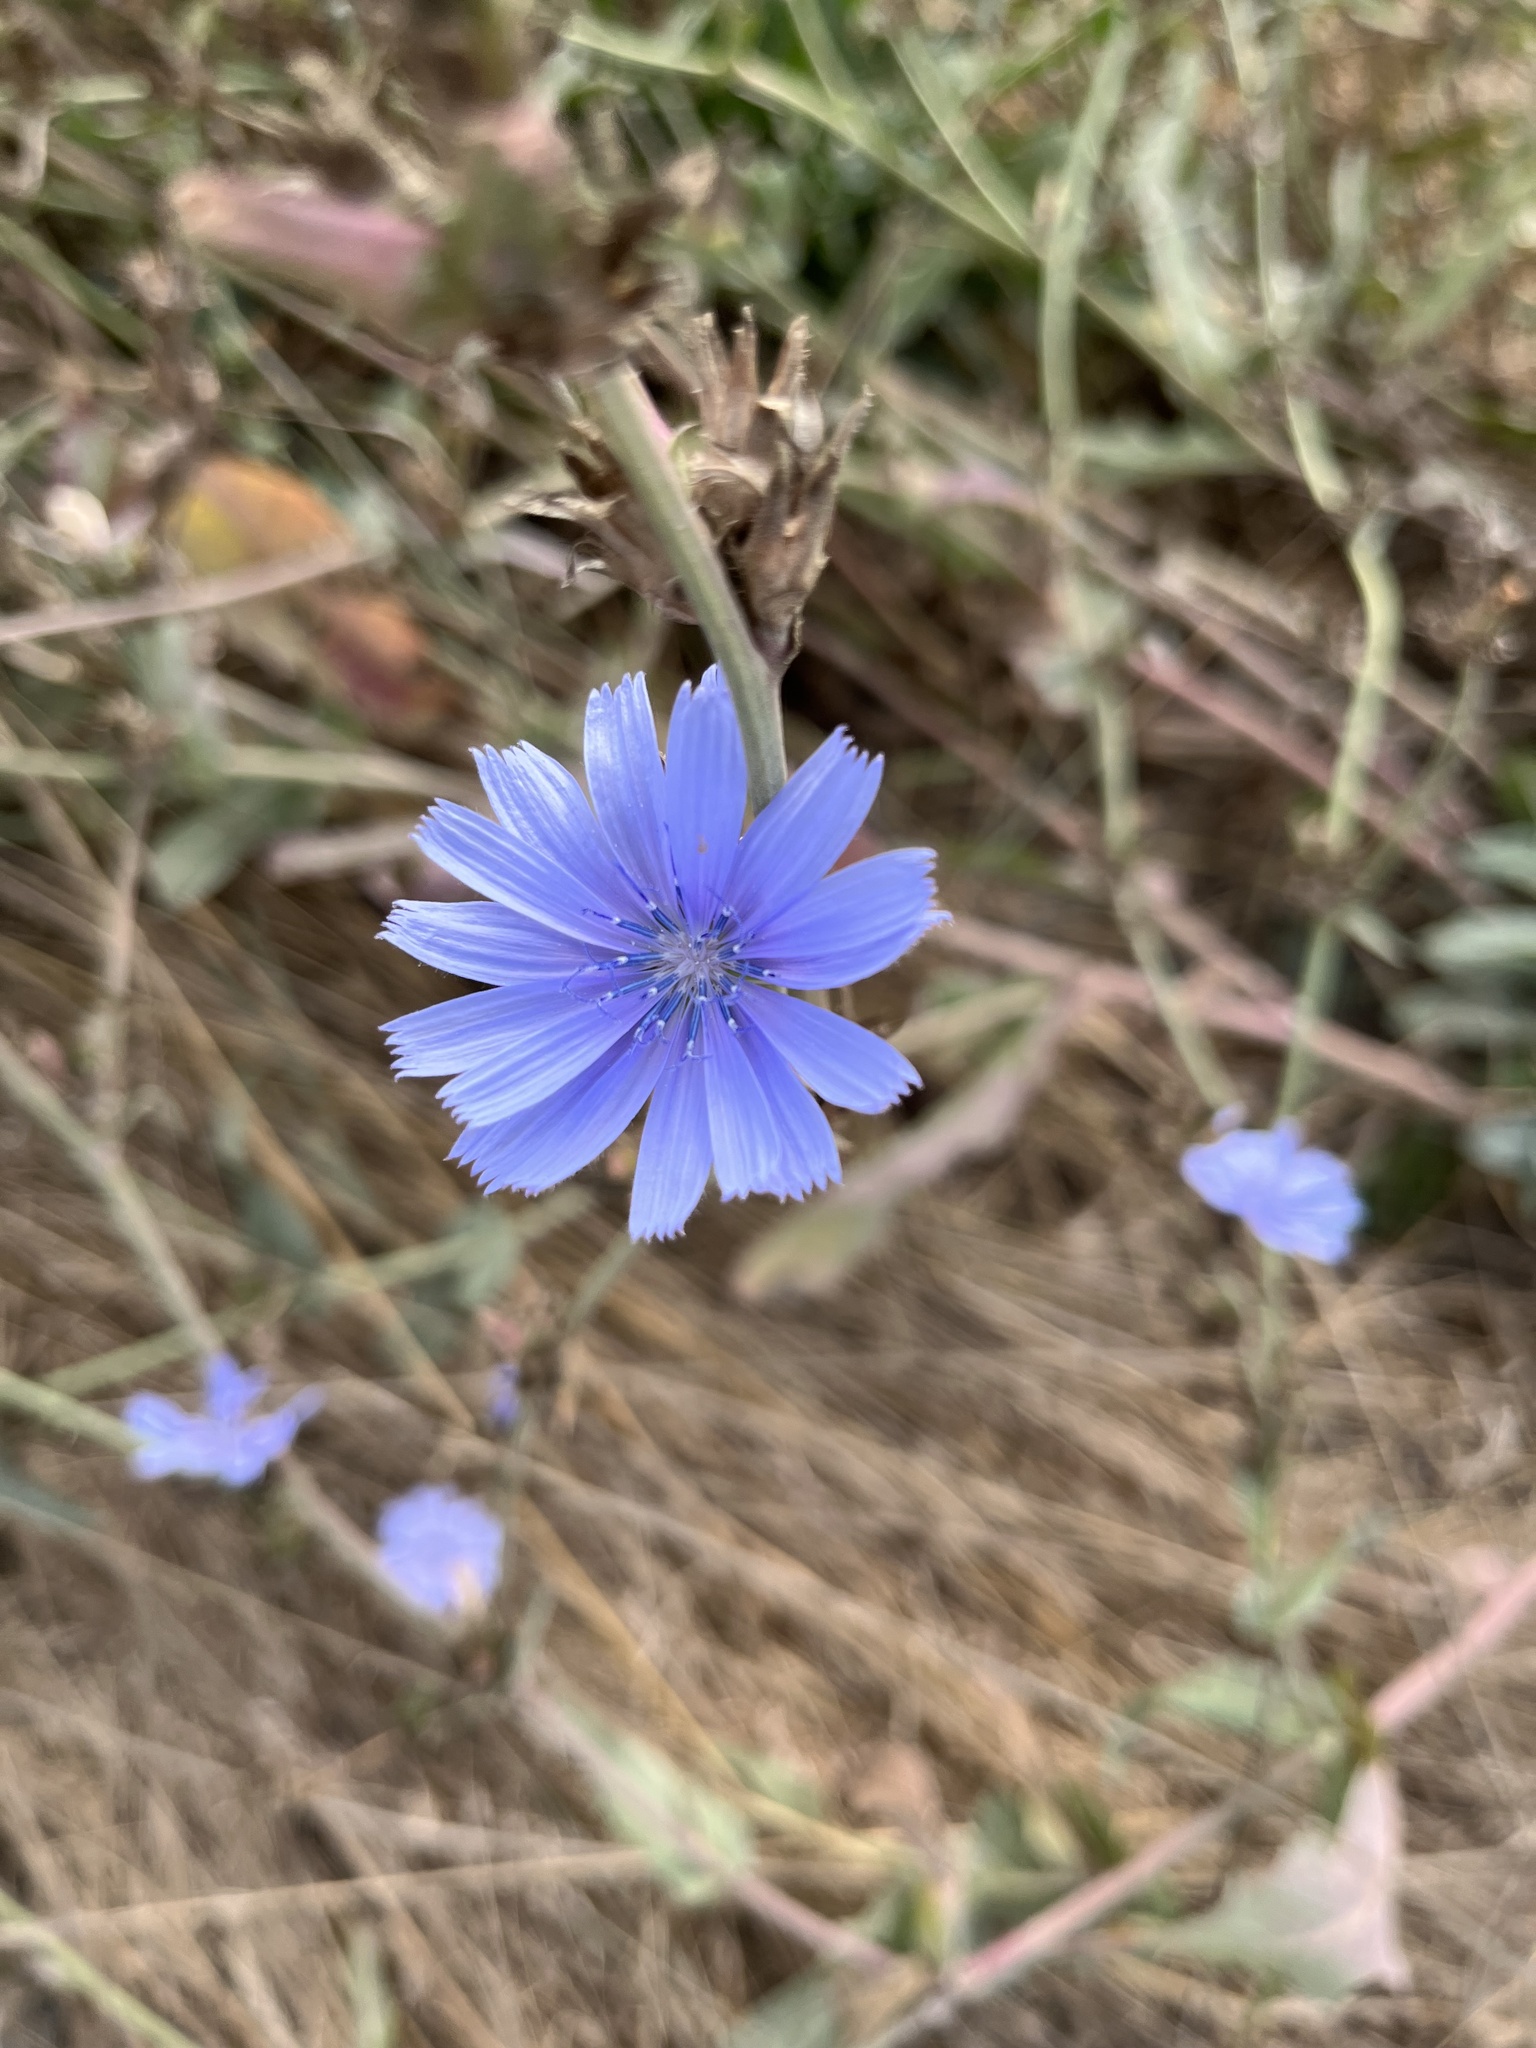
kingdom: Plantae
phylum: Tracheophyta
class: Magnoliopsida
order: Asterales
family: Asteraceae
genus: Cichorium
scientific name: Cichorium intybus
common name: Chicory
